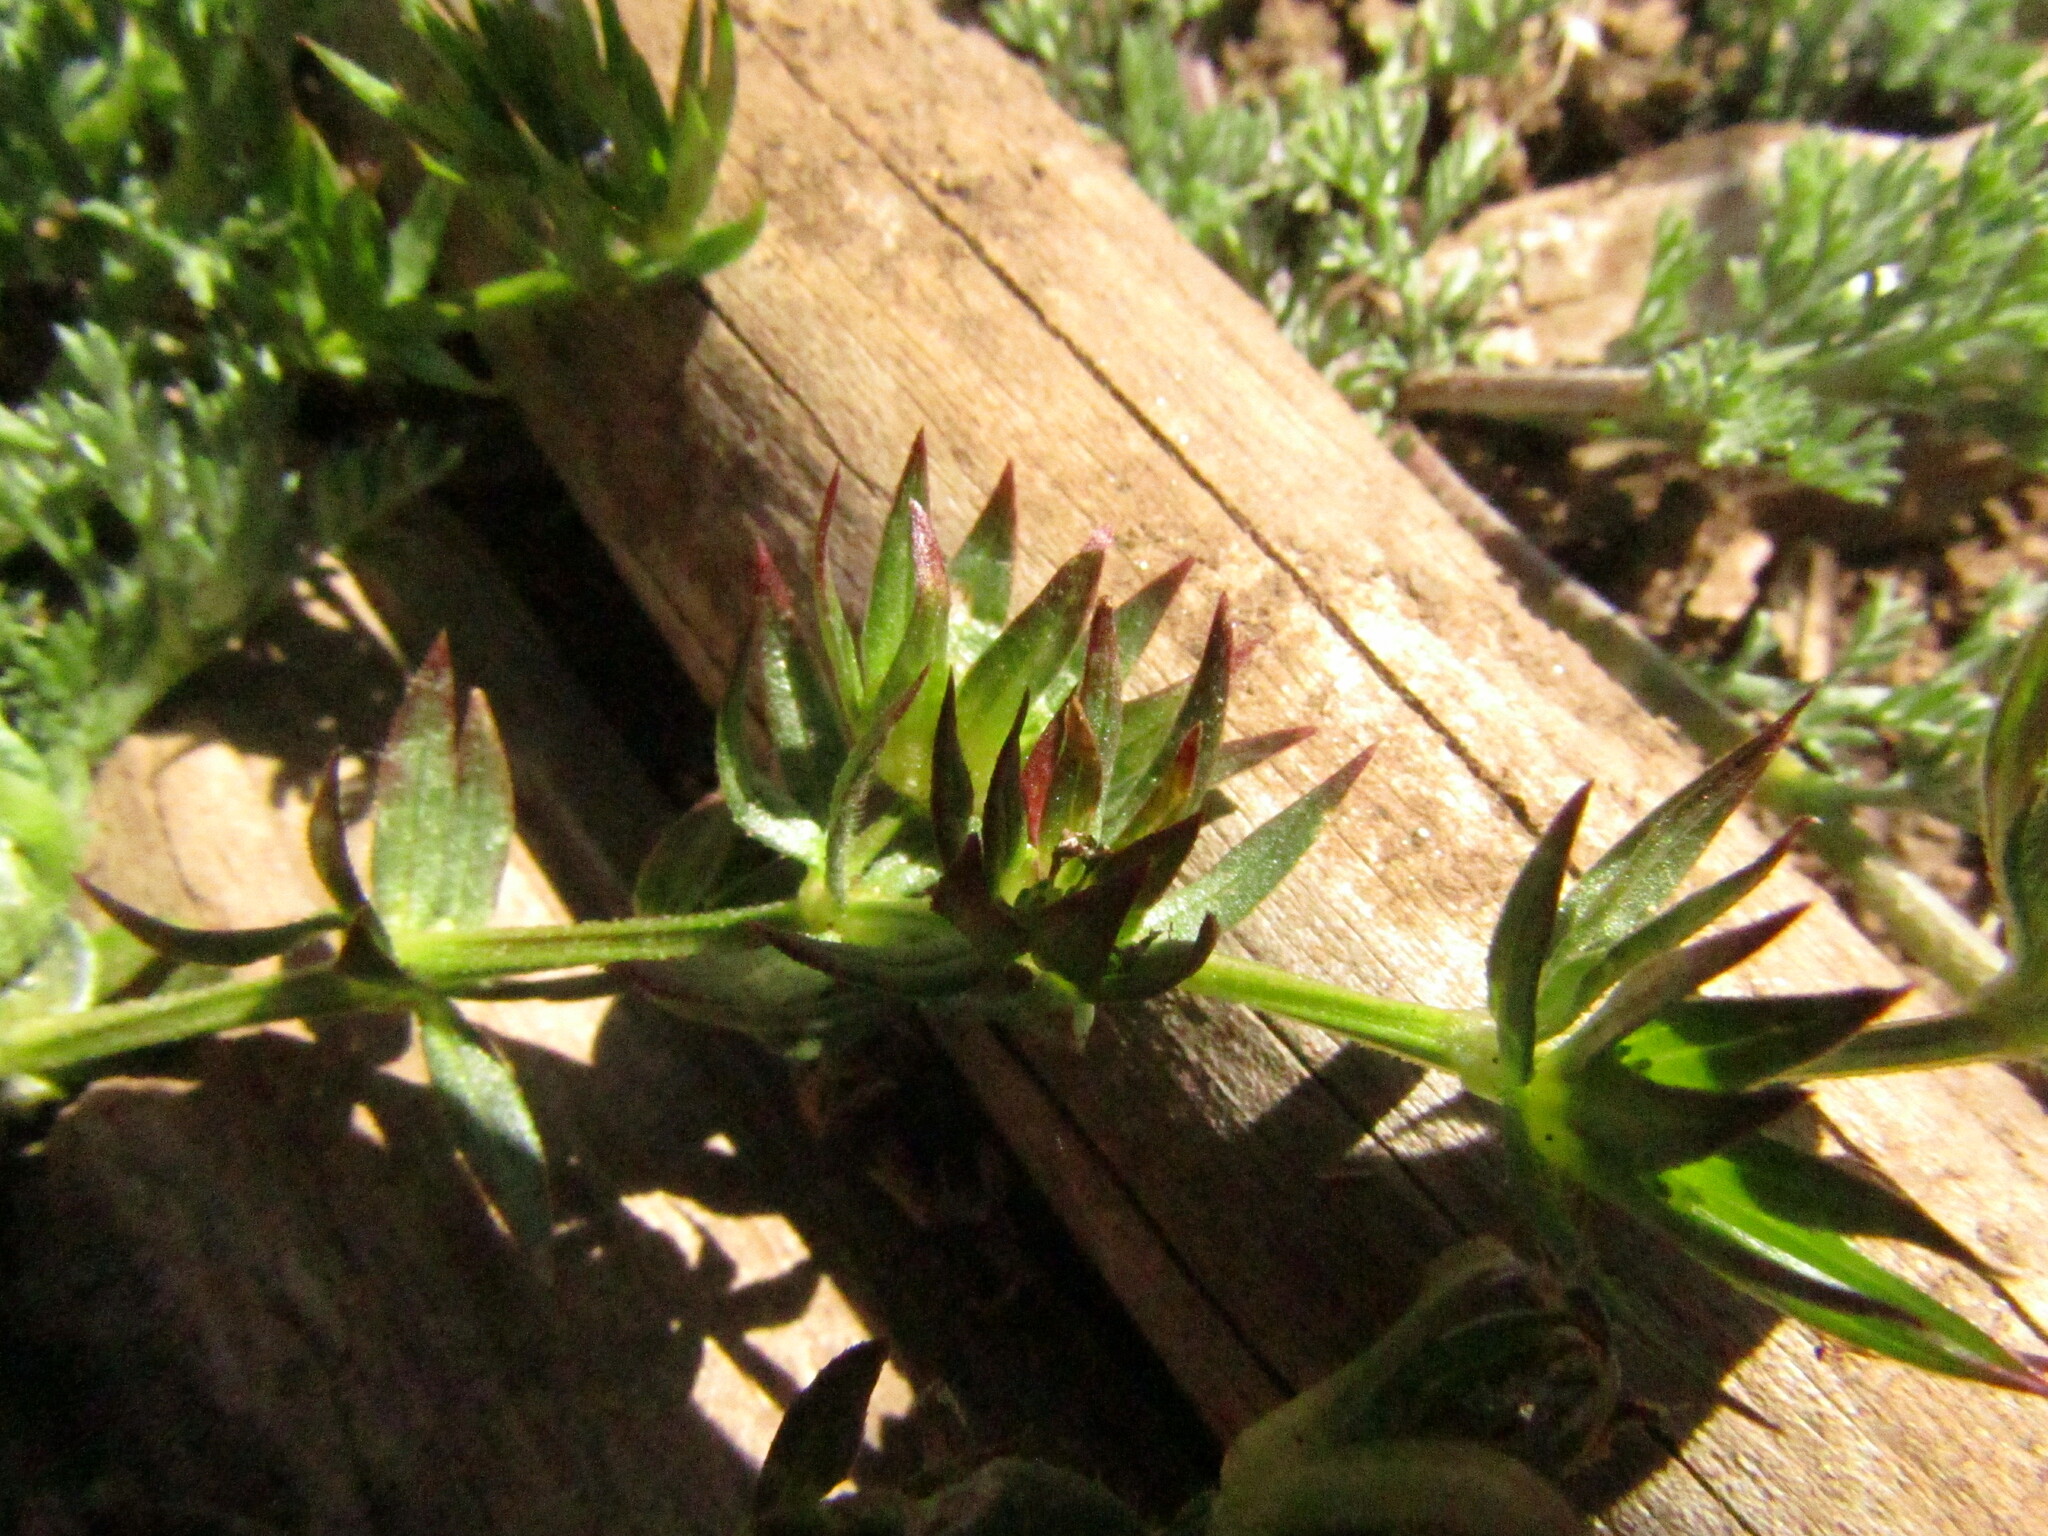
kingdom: Plantae
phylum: Tracheophyta
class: Magnoliopsida
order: Gentianales
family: Rubiaceae
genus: Sherardia
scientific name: Sherardia arvensis
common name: Field madder
